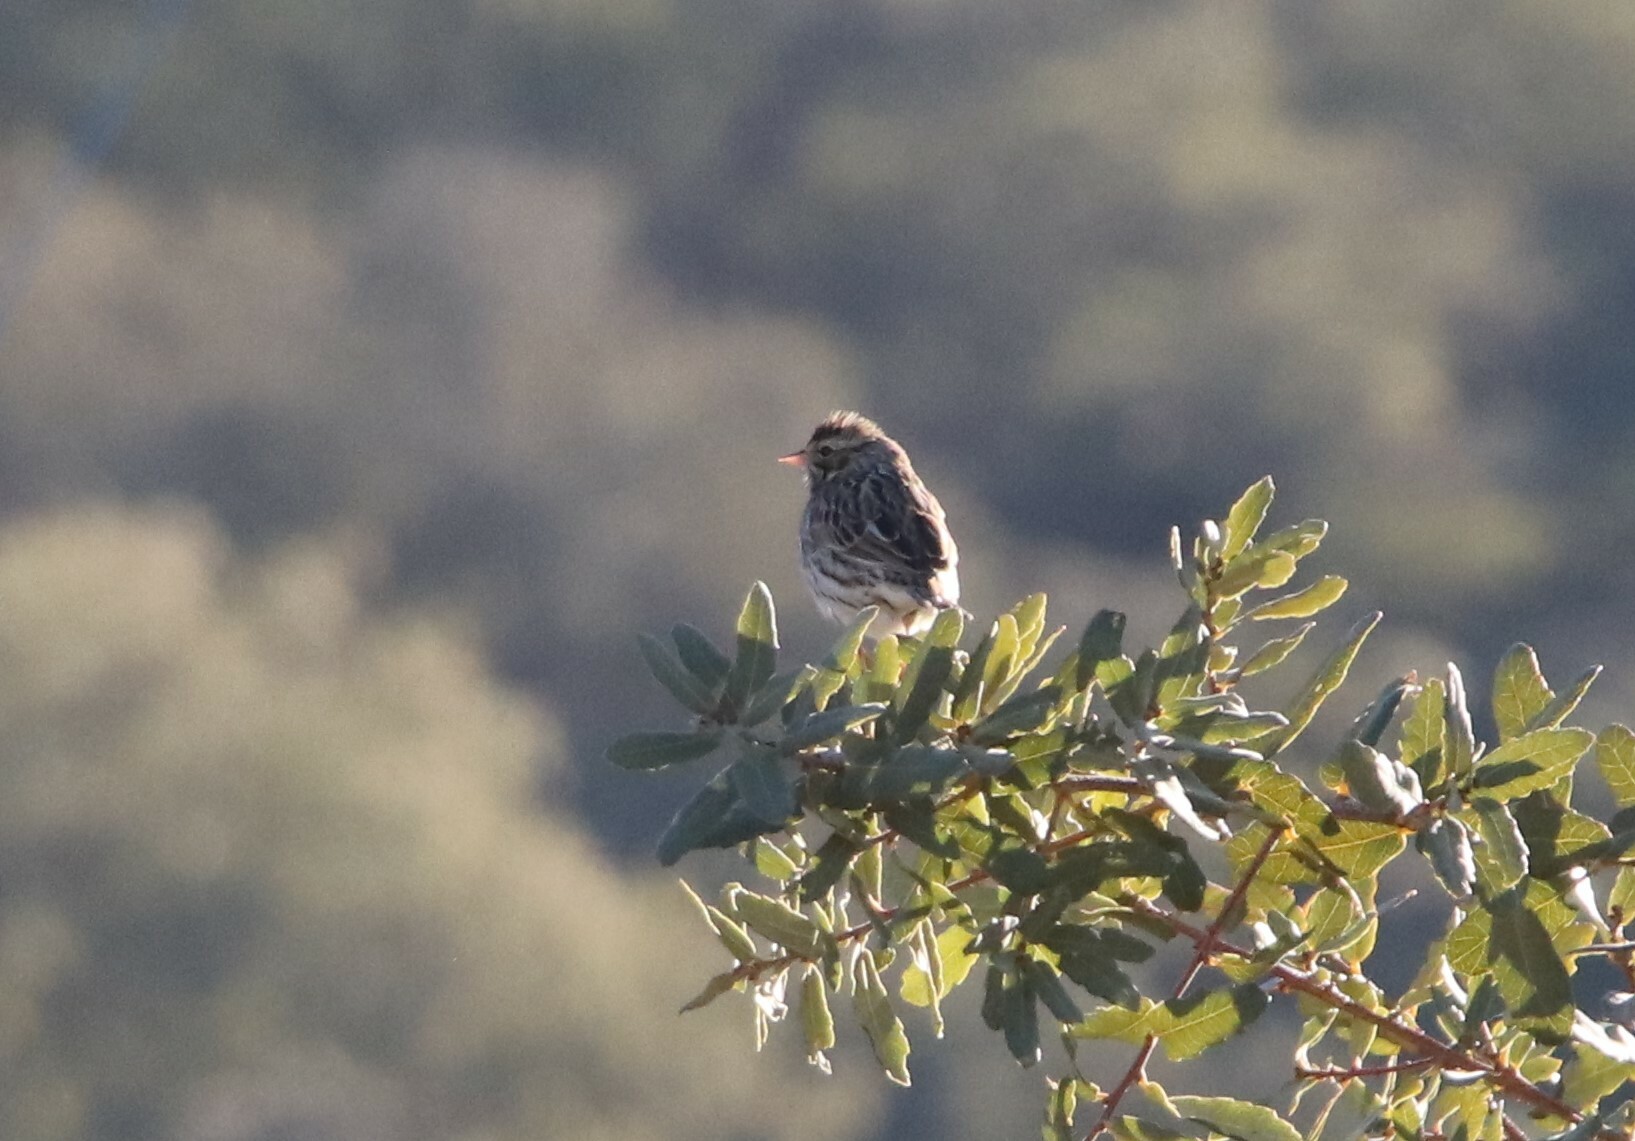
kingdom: Animalia
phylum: Chordata
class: Aves
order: Passeriformes
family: Passerellidae
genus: Passerculus
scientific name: Passerculus sandwichensis
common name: Savannah sparrow
